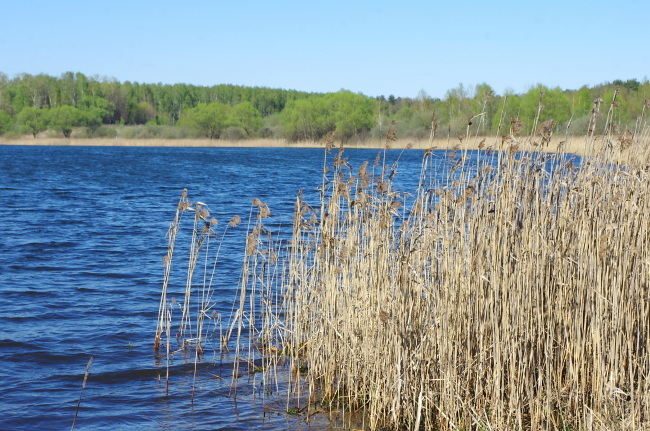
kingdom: Plantae
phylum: Tracheophyta
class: Liliopsida
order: Poales
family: Poaceae
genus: Phragmites
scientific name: Phragmites australis
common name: Common reed
